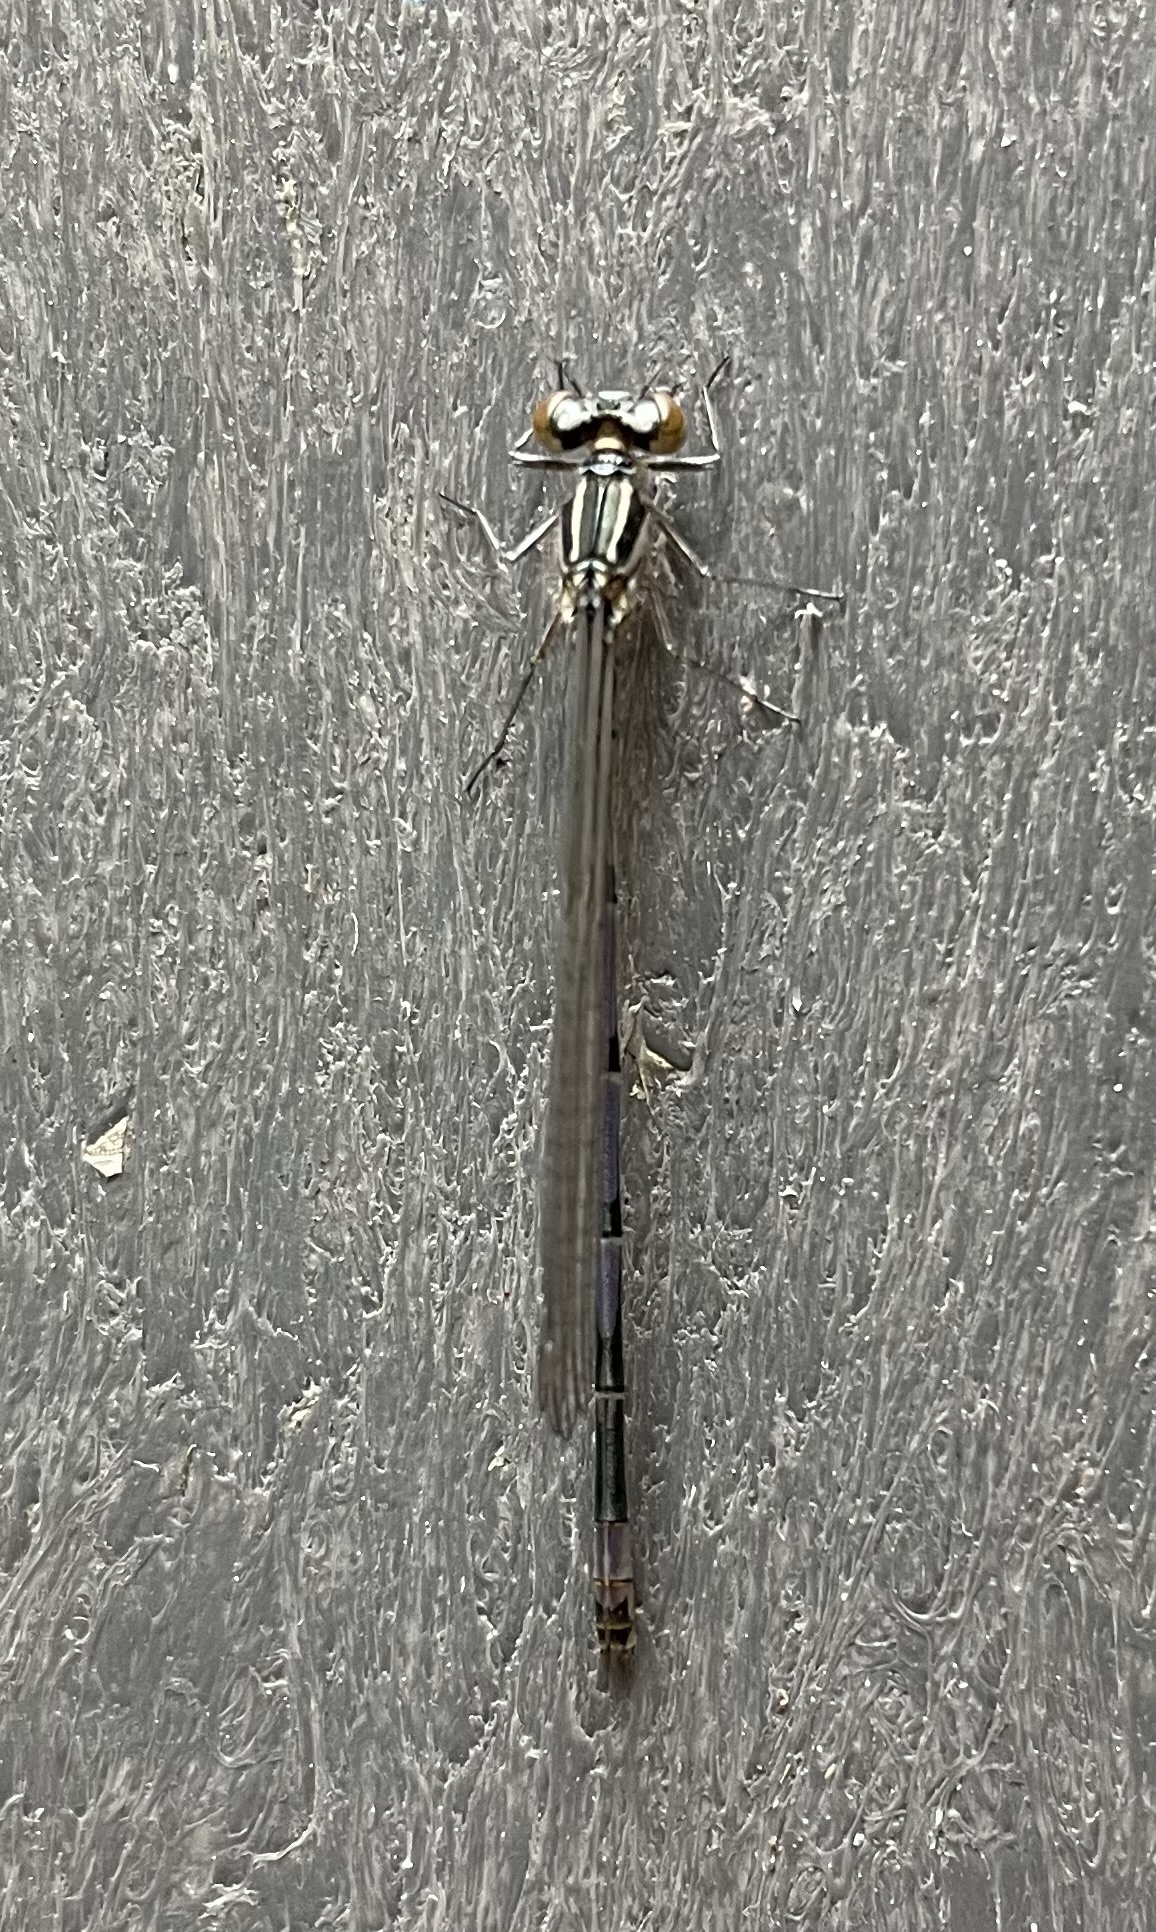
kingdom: Animalia
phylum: Arthropoda
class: Insecta
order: Odonata
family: Coenagrionidae
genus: Coenagrion
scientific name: Coenagrion puella
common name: Azure damselfly
